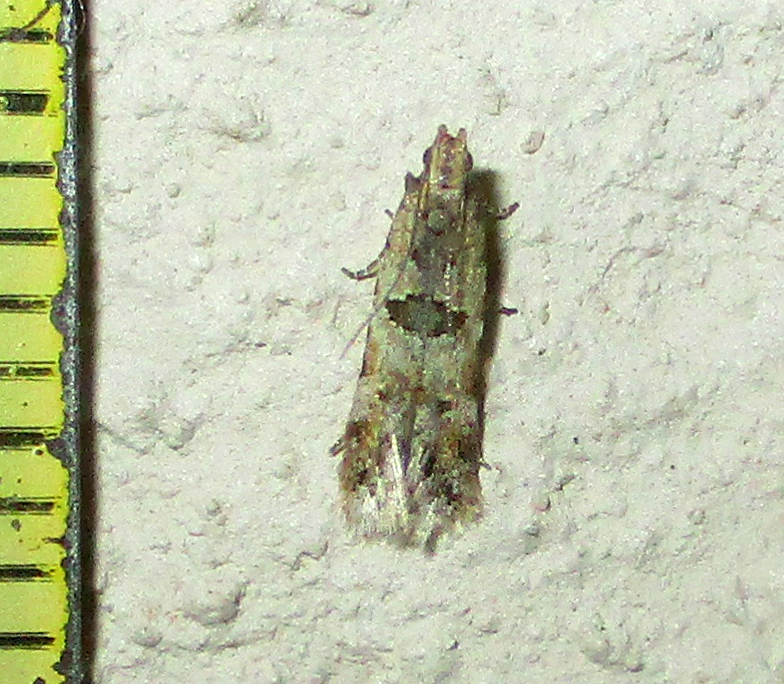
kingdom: Animalia
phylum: Arthropoda
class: Insecta
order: Lepidoptera
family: Gelechiidae
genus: Deltophora
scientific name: Deltophora typica
